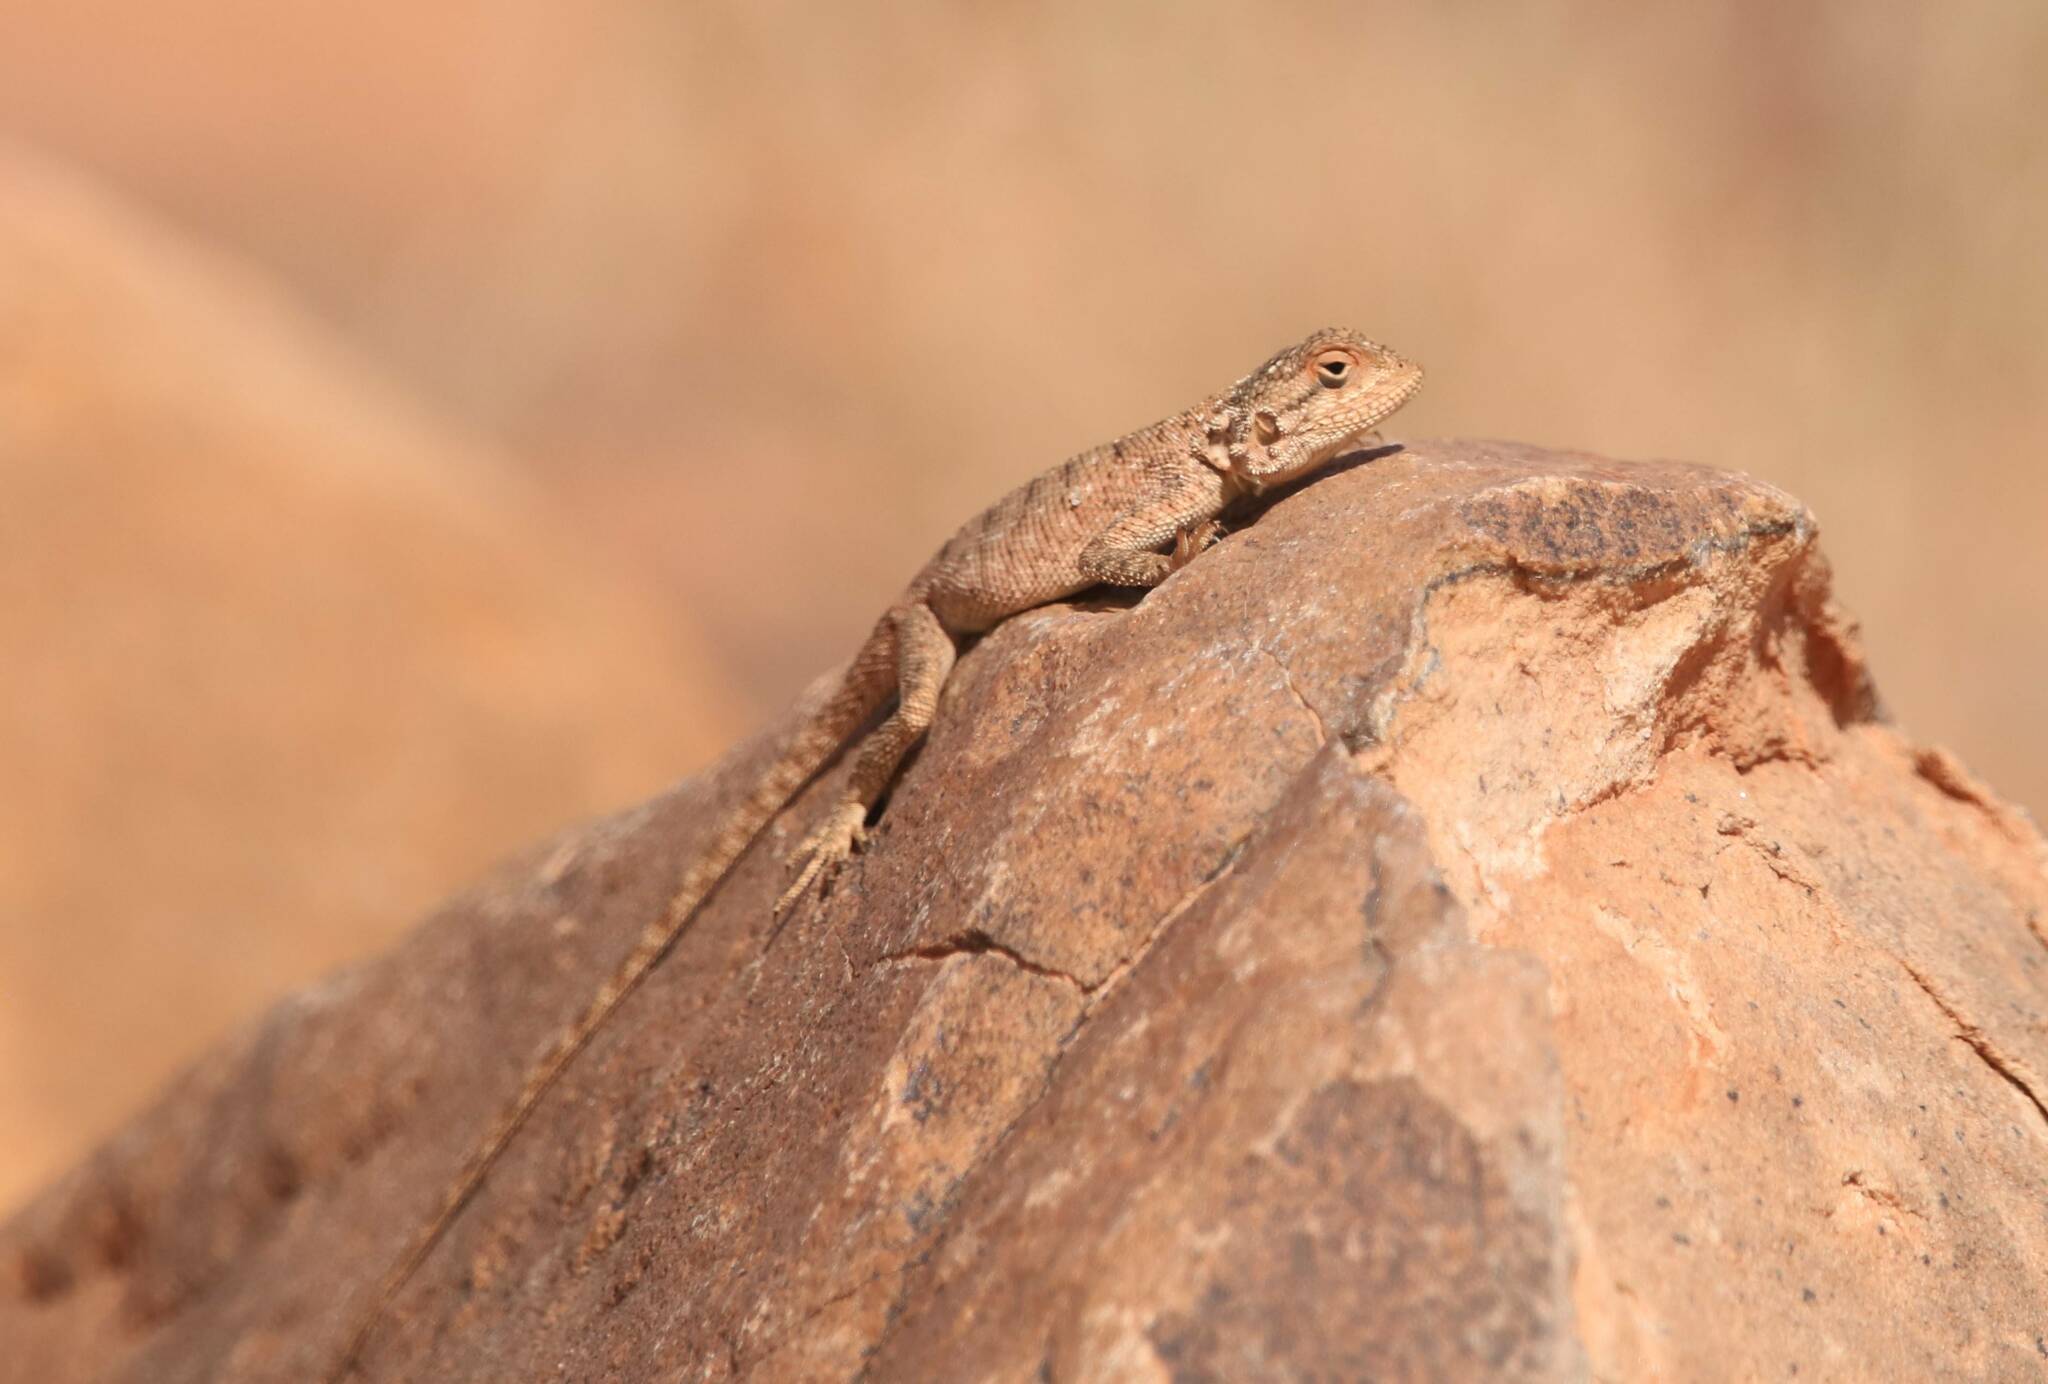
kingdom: Animalia
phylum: Chordata
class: Squamata
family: Agamidae
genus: Agama
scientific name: Agama impalearis
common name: Bibron's agama
